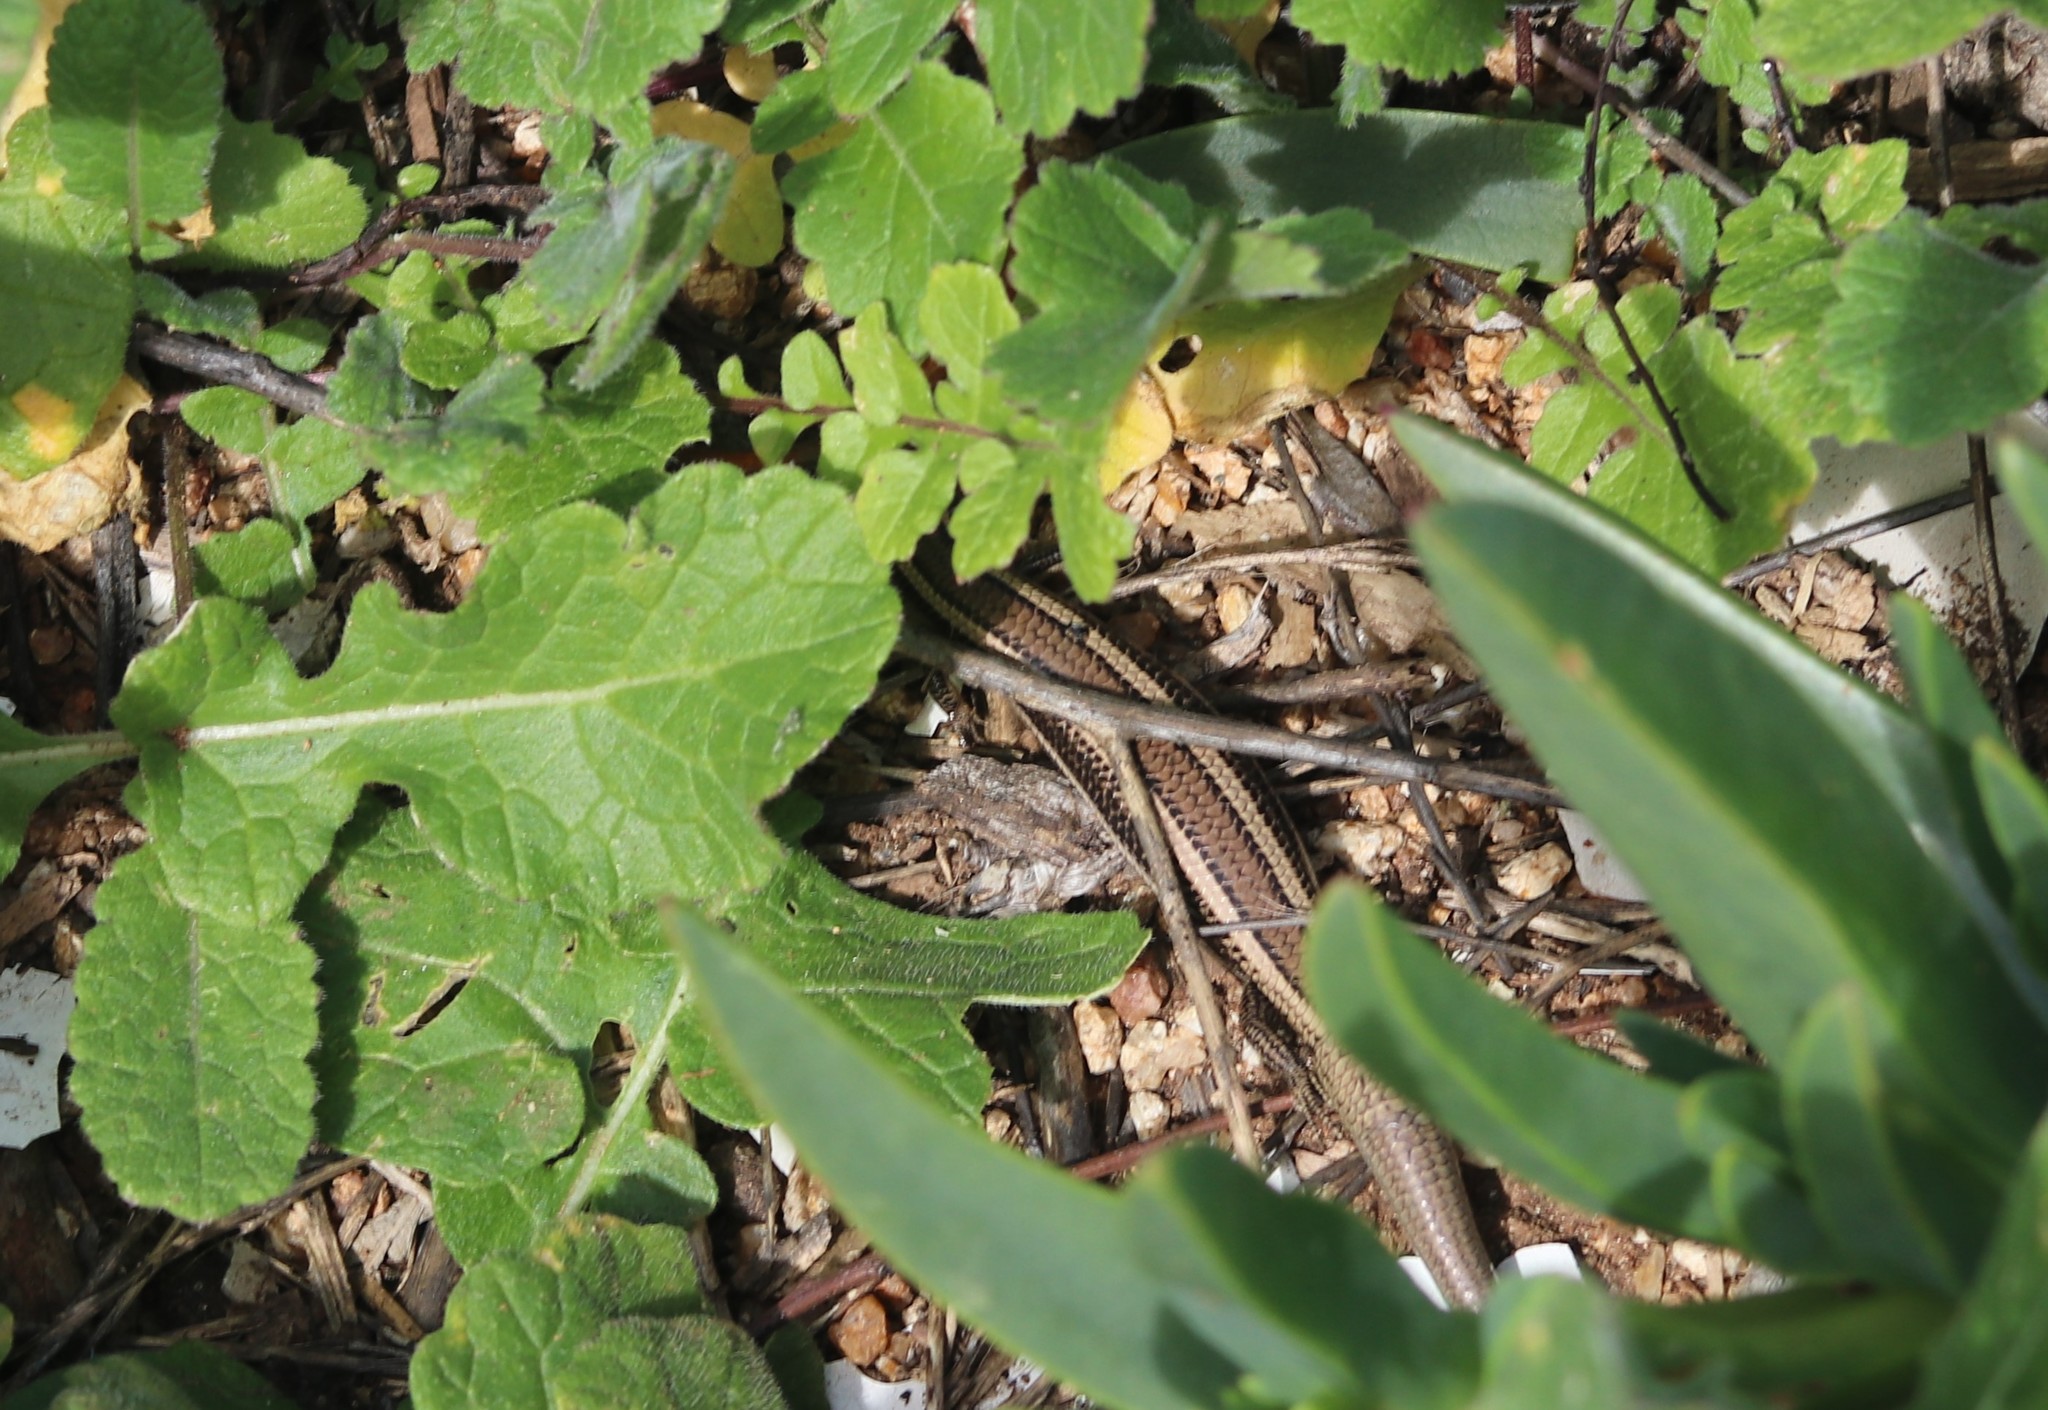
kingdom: Animalia
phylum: Chordata
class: Squamata
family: Scincidae
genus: Plestiodon
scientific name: Plestiodon skiltonianus
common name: Coronado island skink [interparietalis]
